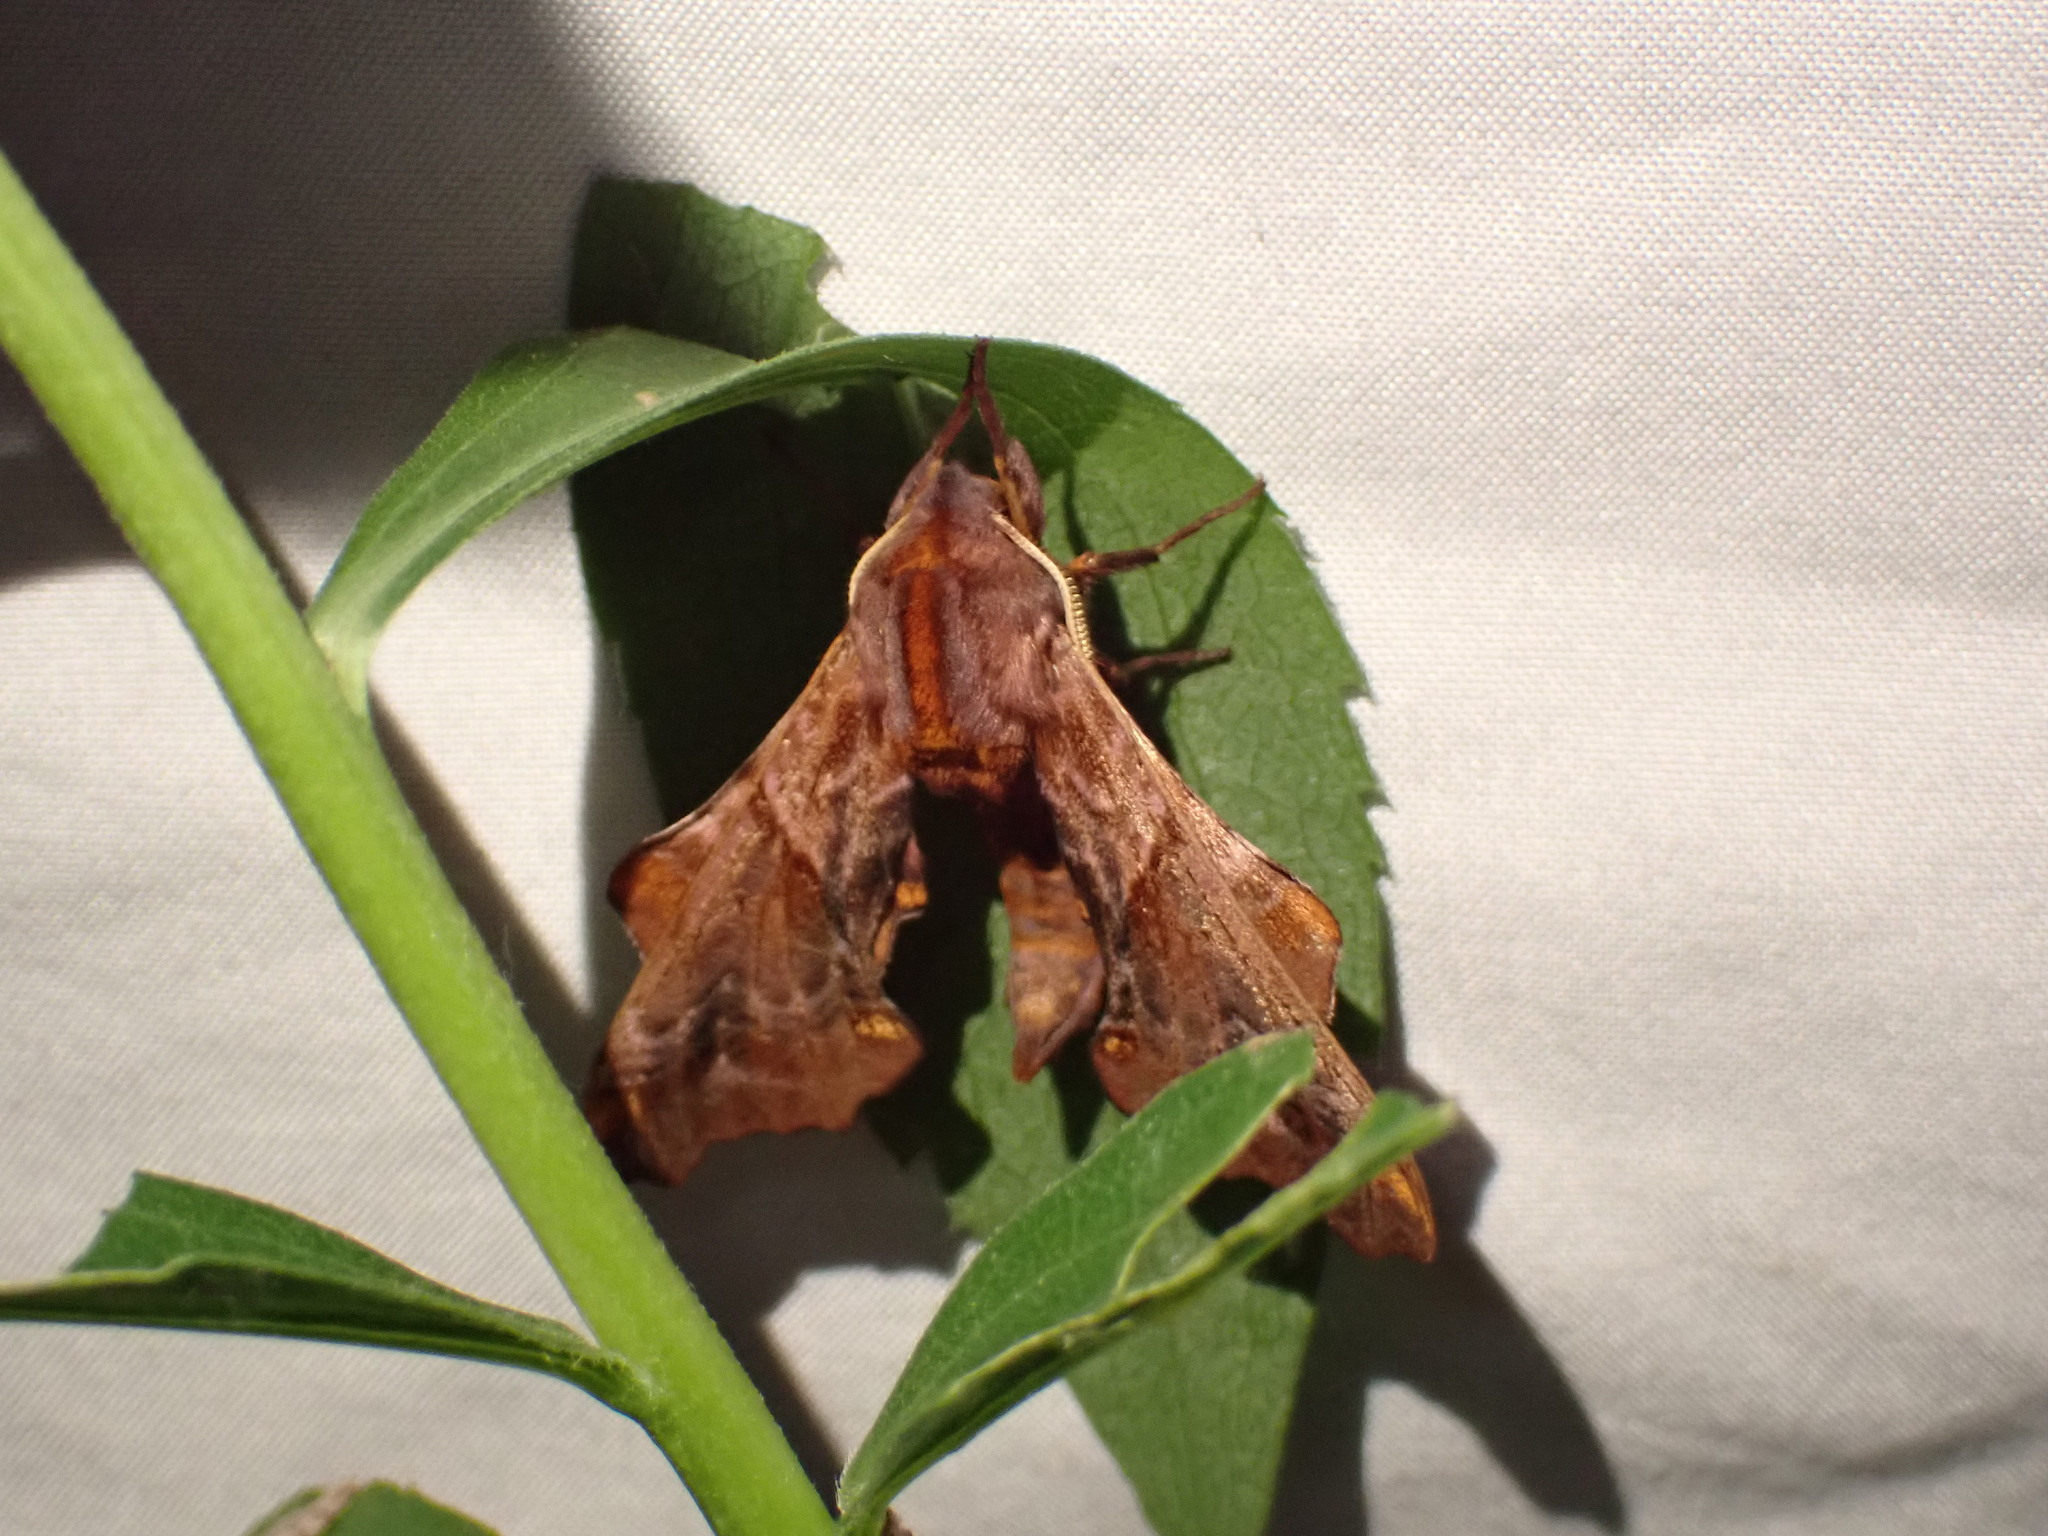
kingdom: Animalia
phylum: Arthropoda
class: Insecta
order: Lepidoptera
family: Sphingidae
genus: Paonias
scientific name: Paonias myops
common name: Small-eyed sphinx
